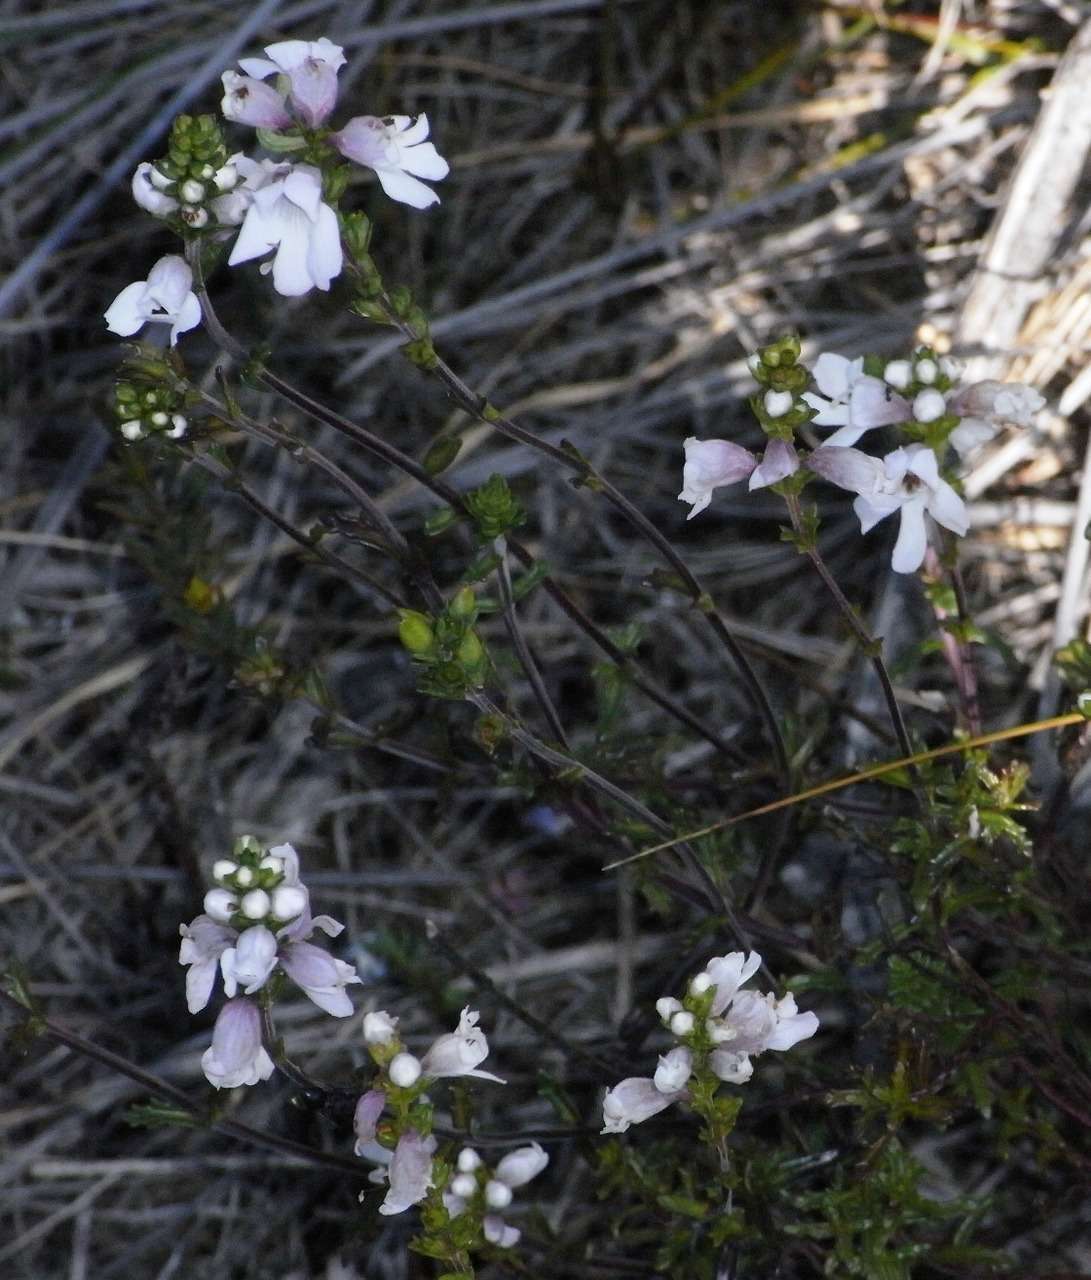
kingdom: Plantae
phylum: Tracheophyta
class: Magnoliopsida
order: Lamiales
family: Orobanchaceae
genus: Euphrasia
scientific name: Euphrasia collina
